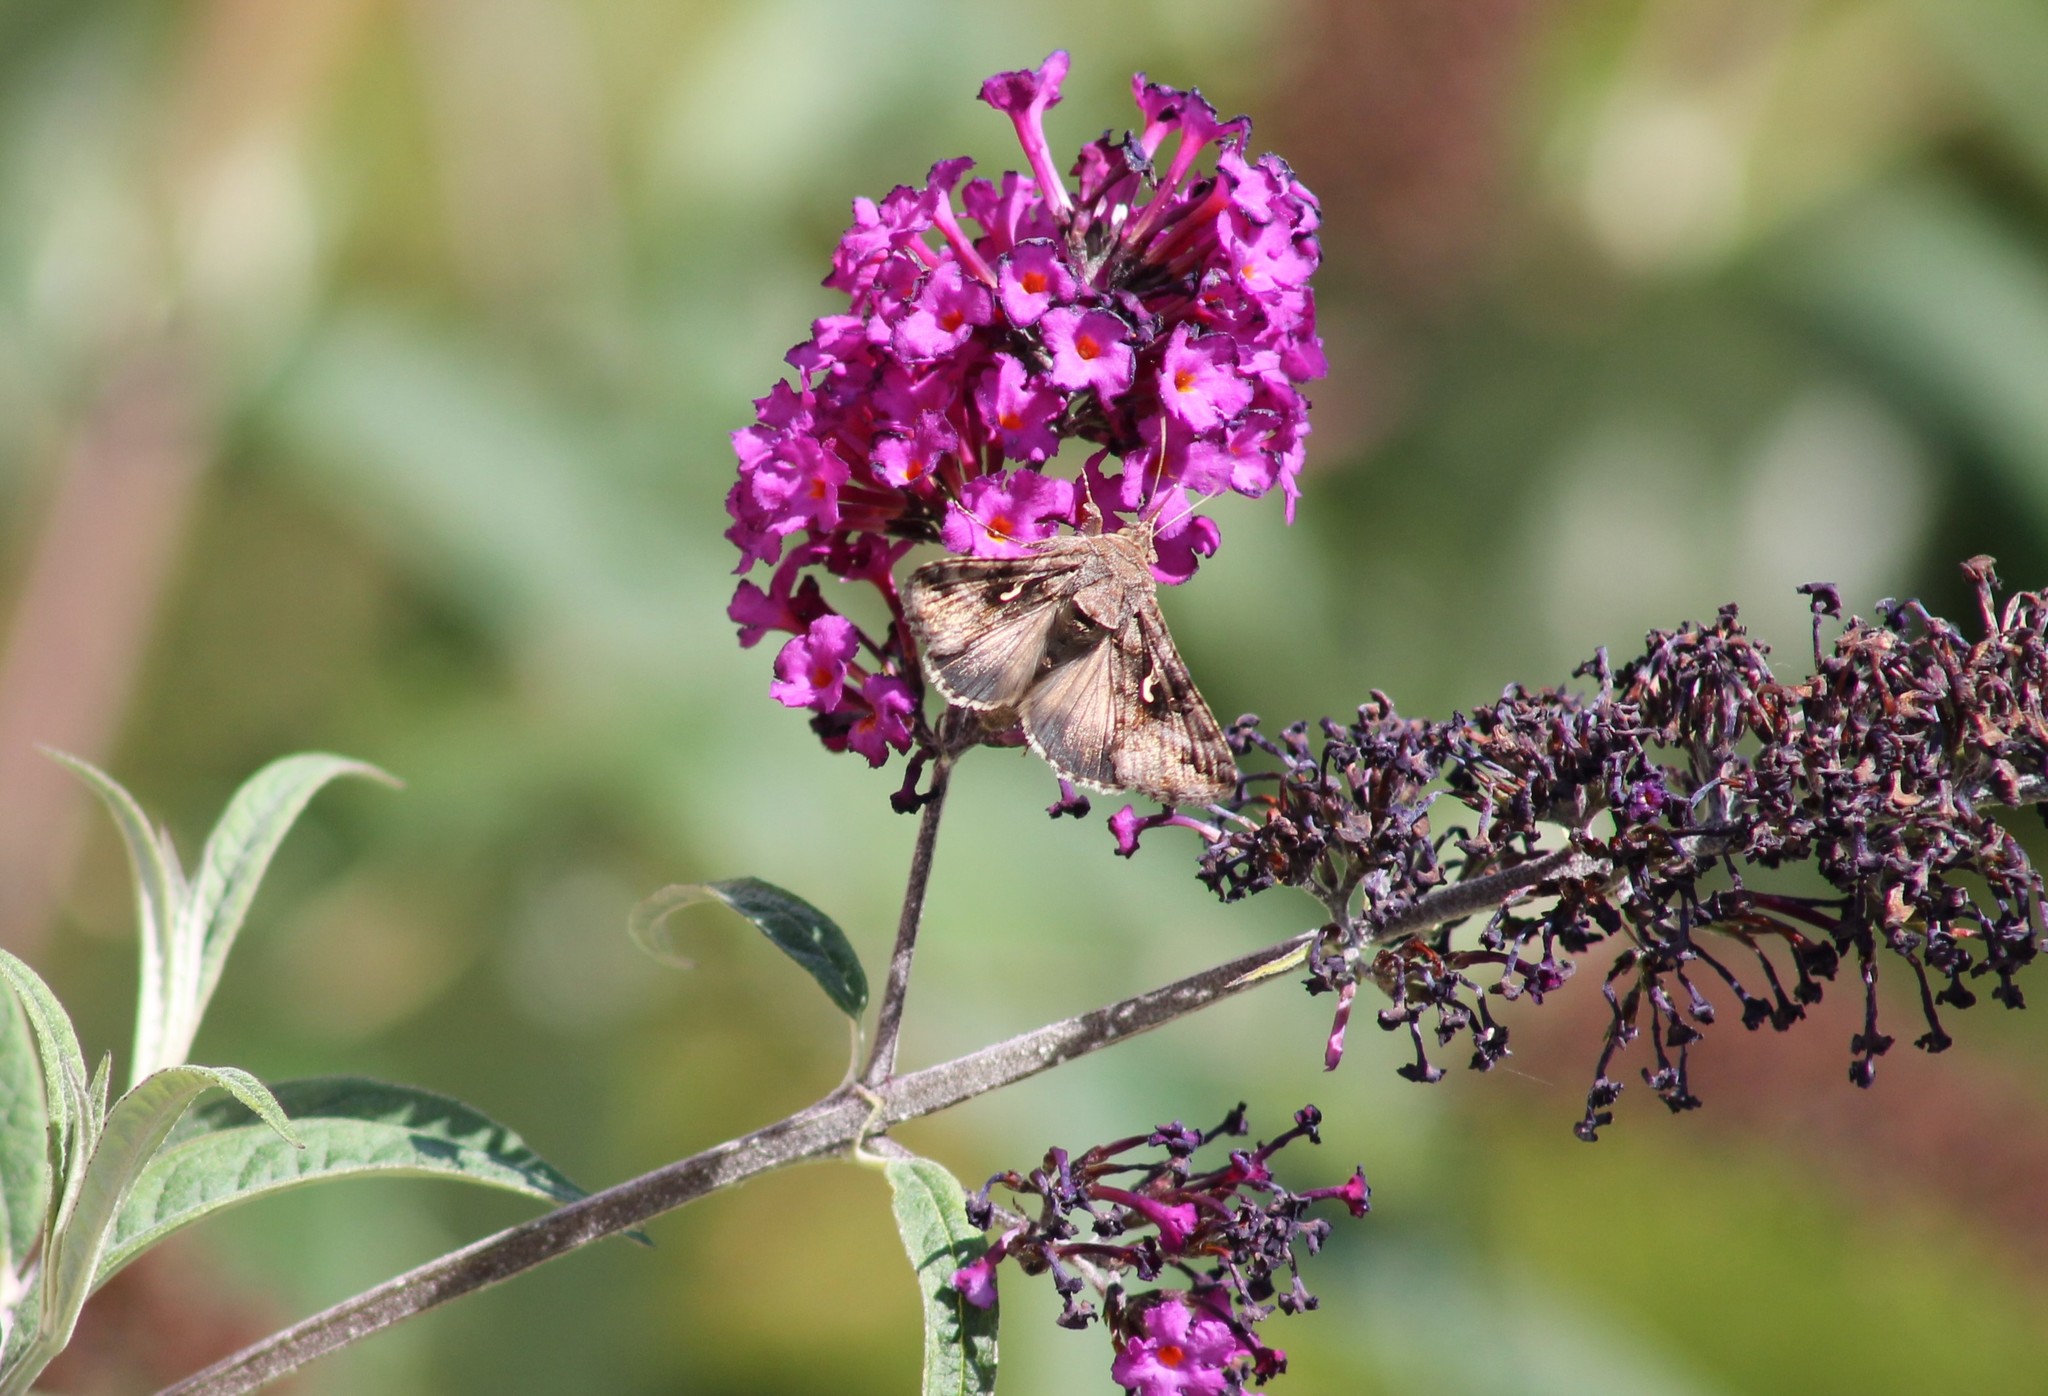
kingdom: Animalia
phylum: Arthropoda
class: Insecta
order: Lepidoptera
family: Noctuidae
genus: Autographa
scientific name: Autographa gamma
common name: Silver y
